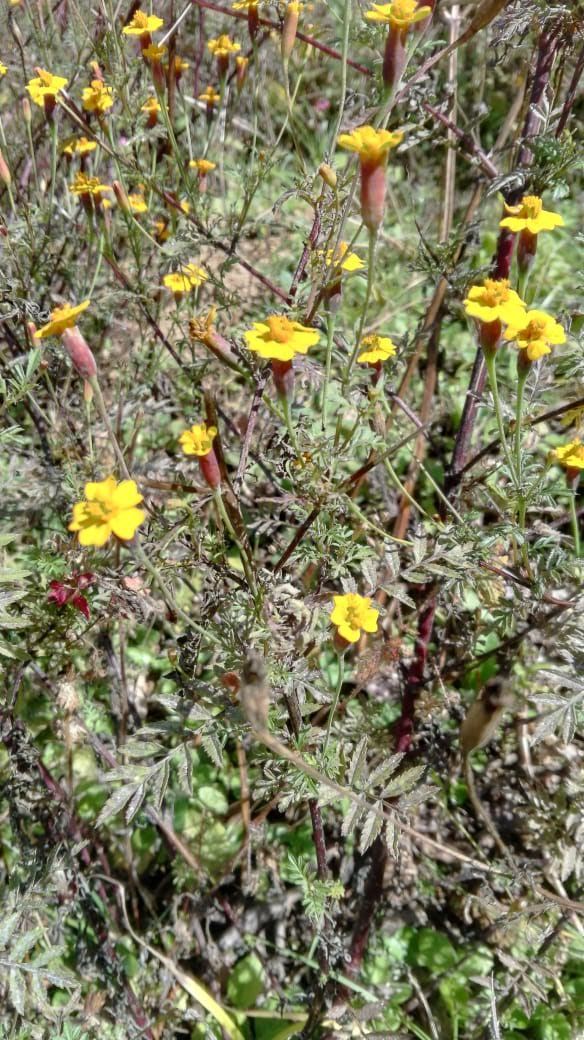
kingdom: Plantae
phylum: Tracheophyta
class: Magnoliopsida
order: Asterales
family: Asteraceae
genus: Tagetes
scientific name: Tagetes tenuifolia
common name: Signet marigold
